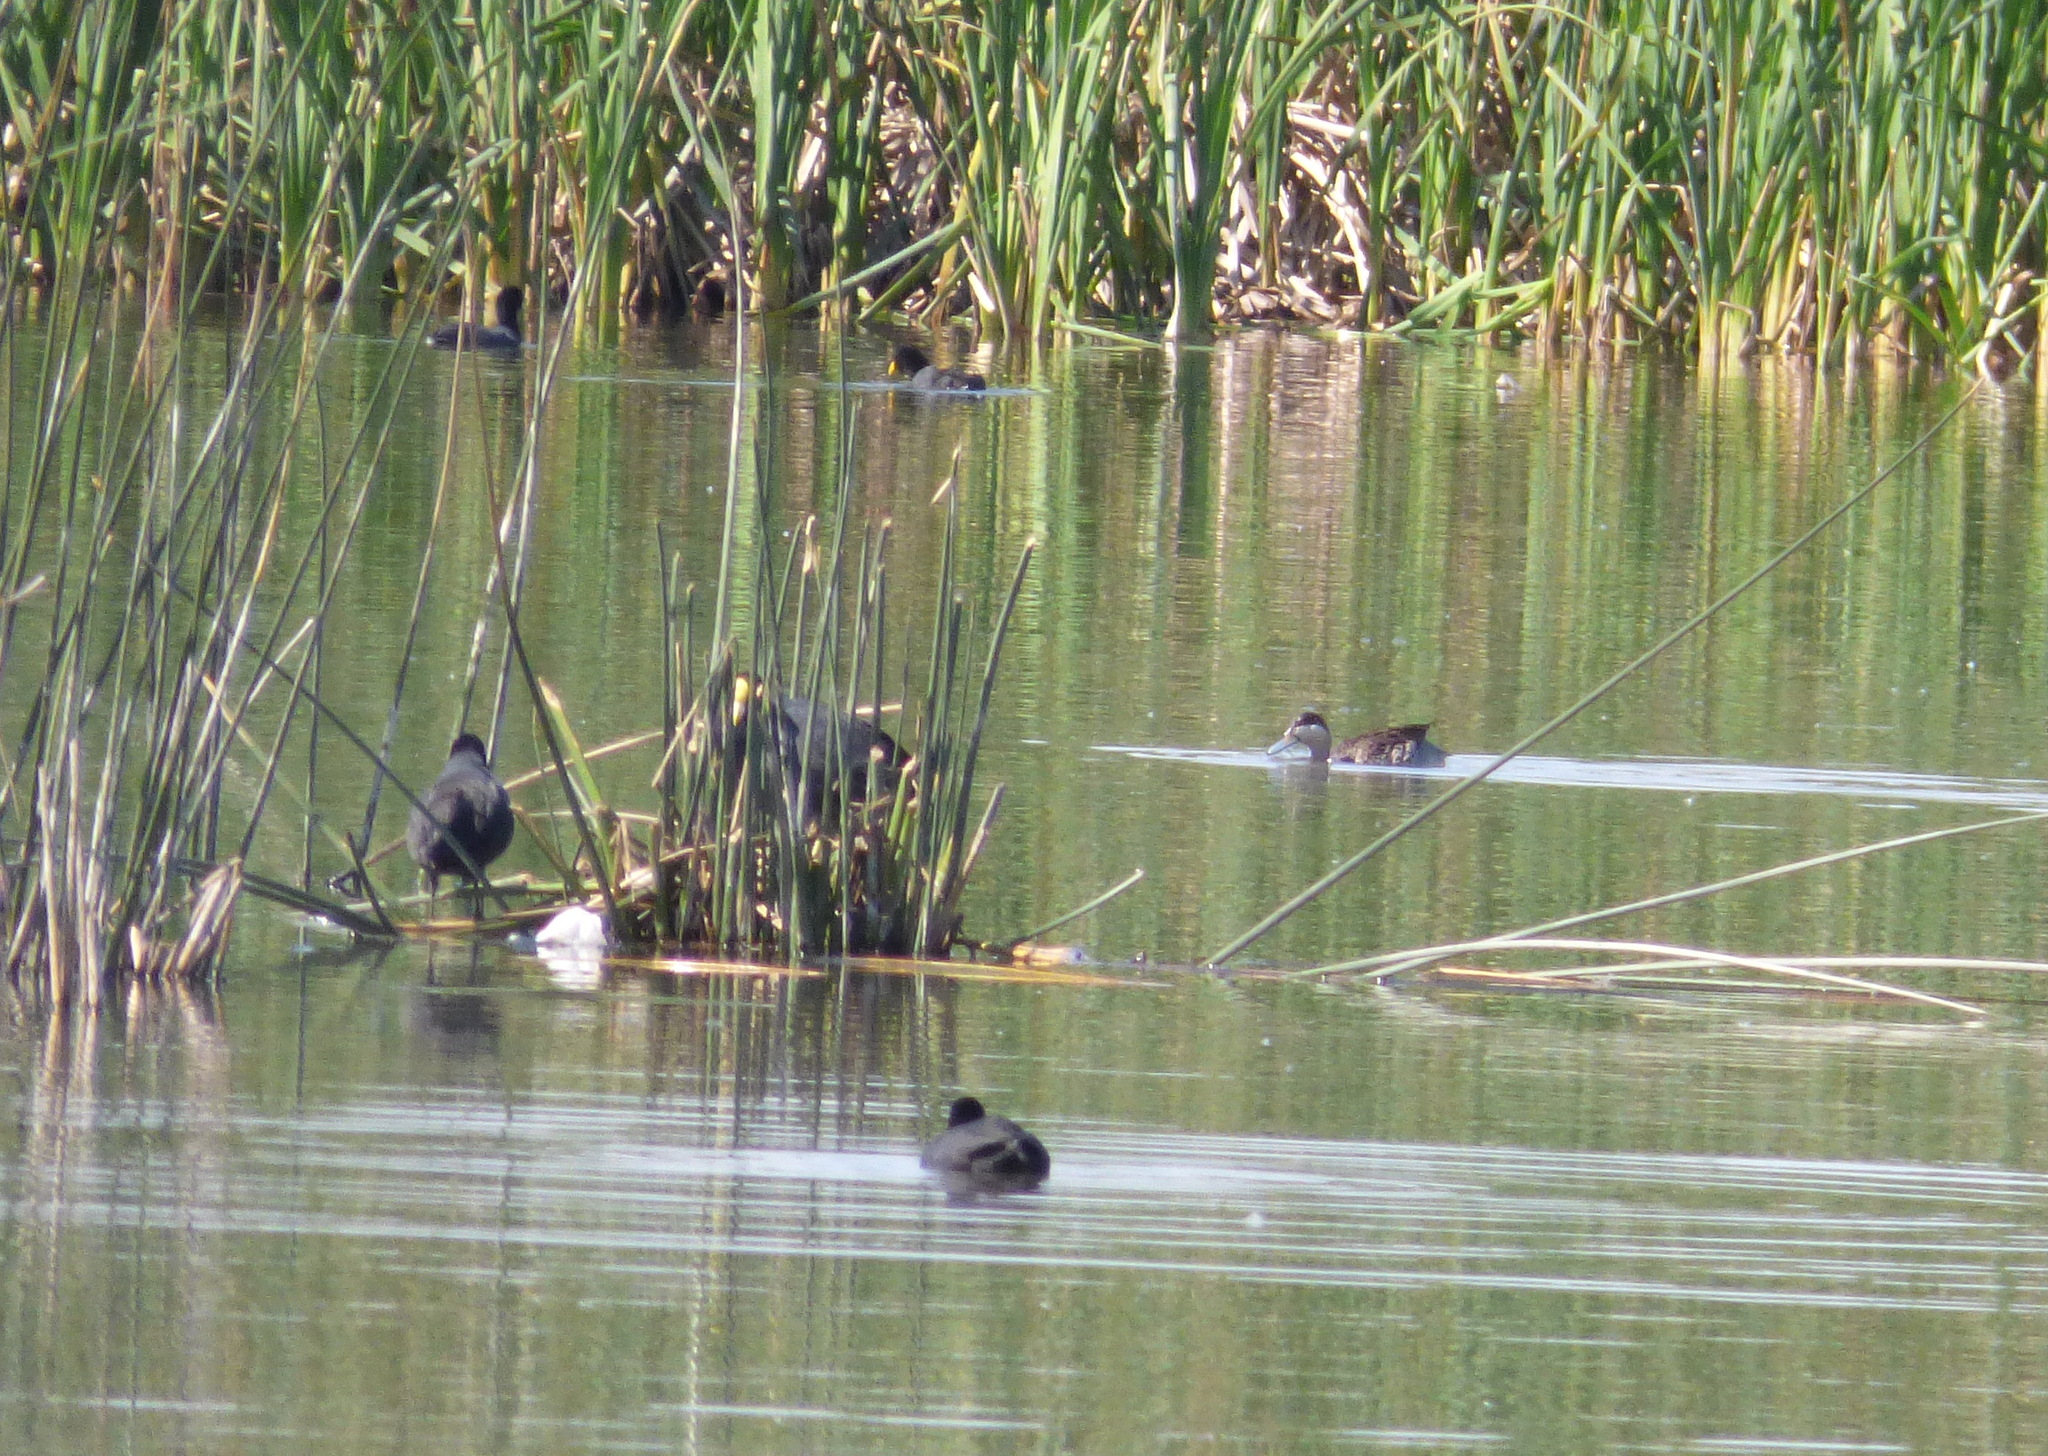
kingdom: Animalia
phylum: Chordata
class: Aves
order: Anseriformes
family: Anatidae
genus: Spatula
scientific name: Spatula versicolor
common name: Silver teal
